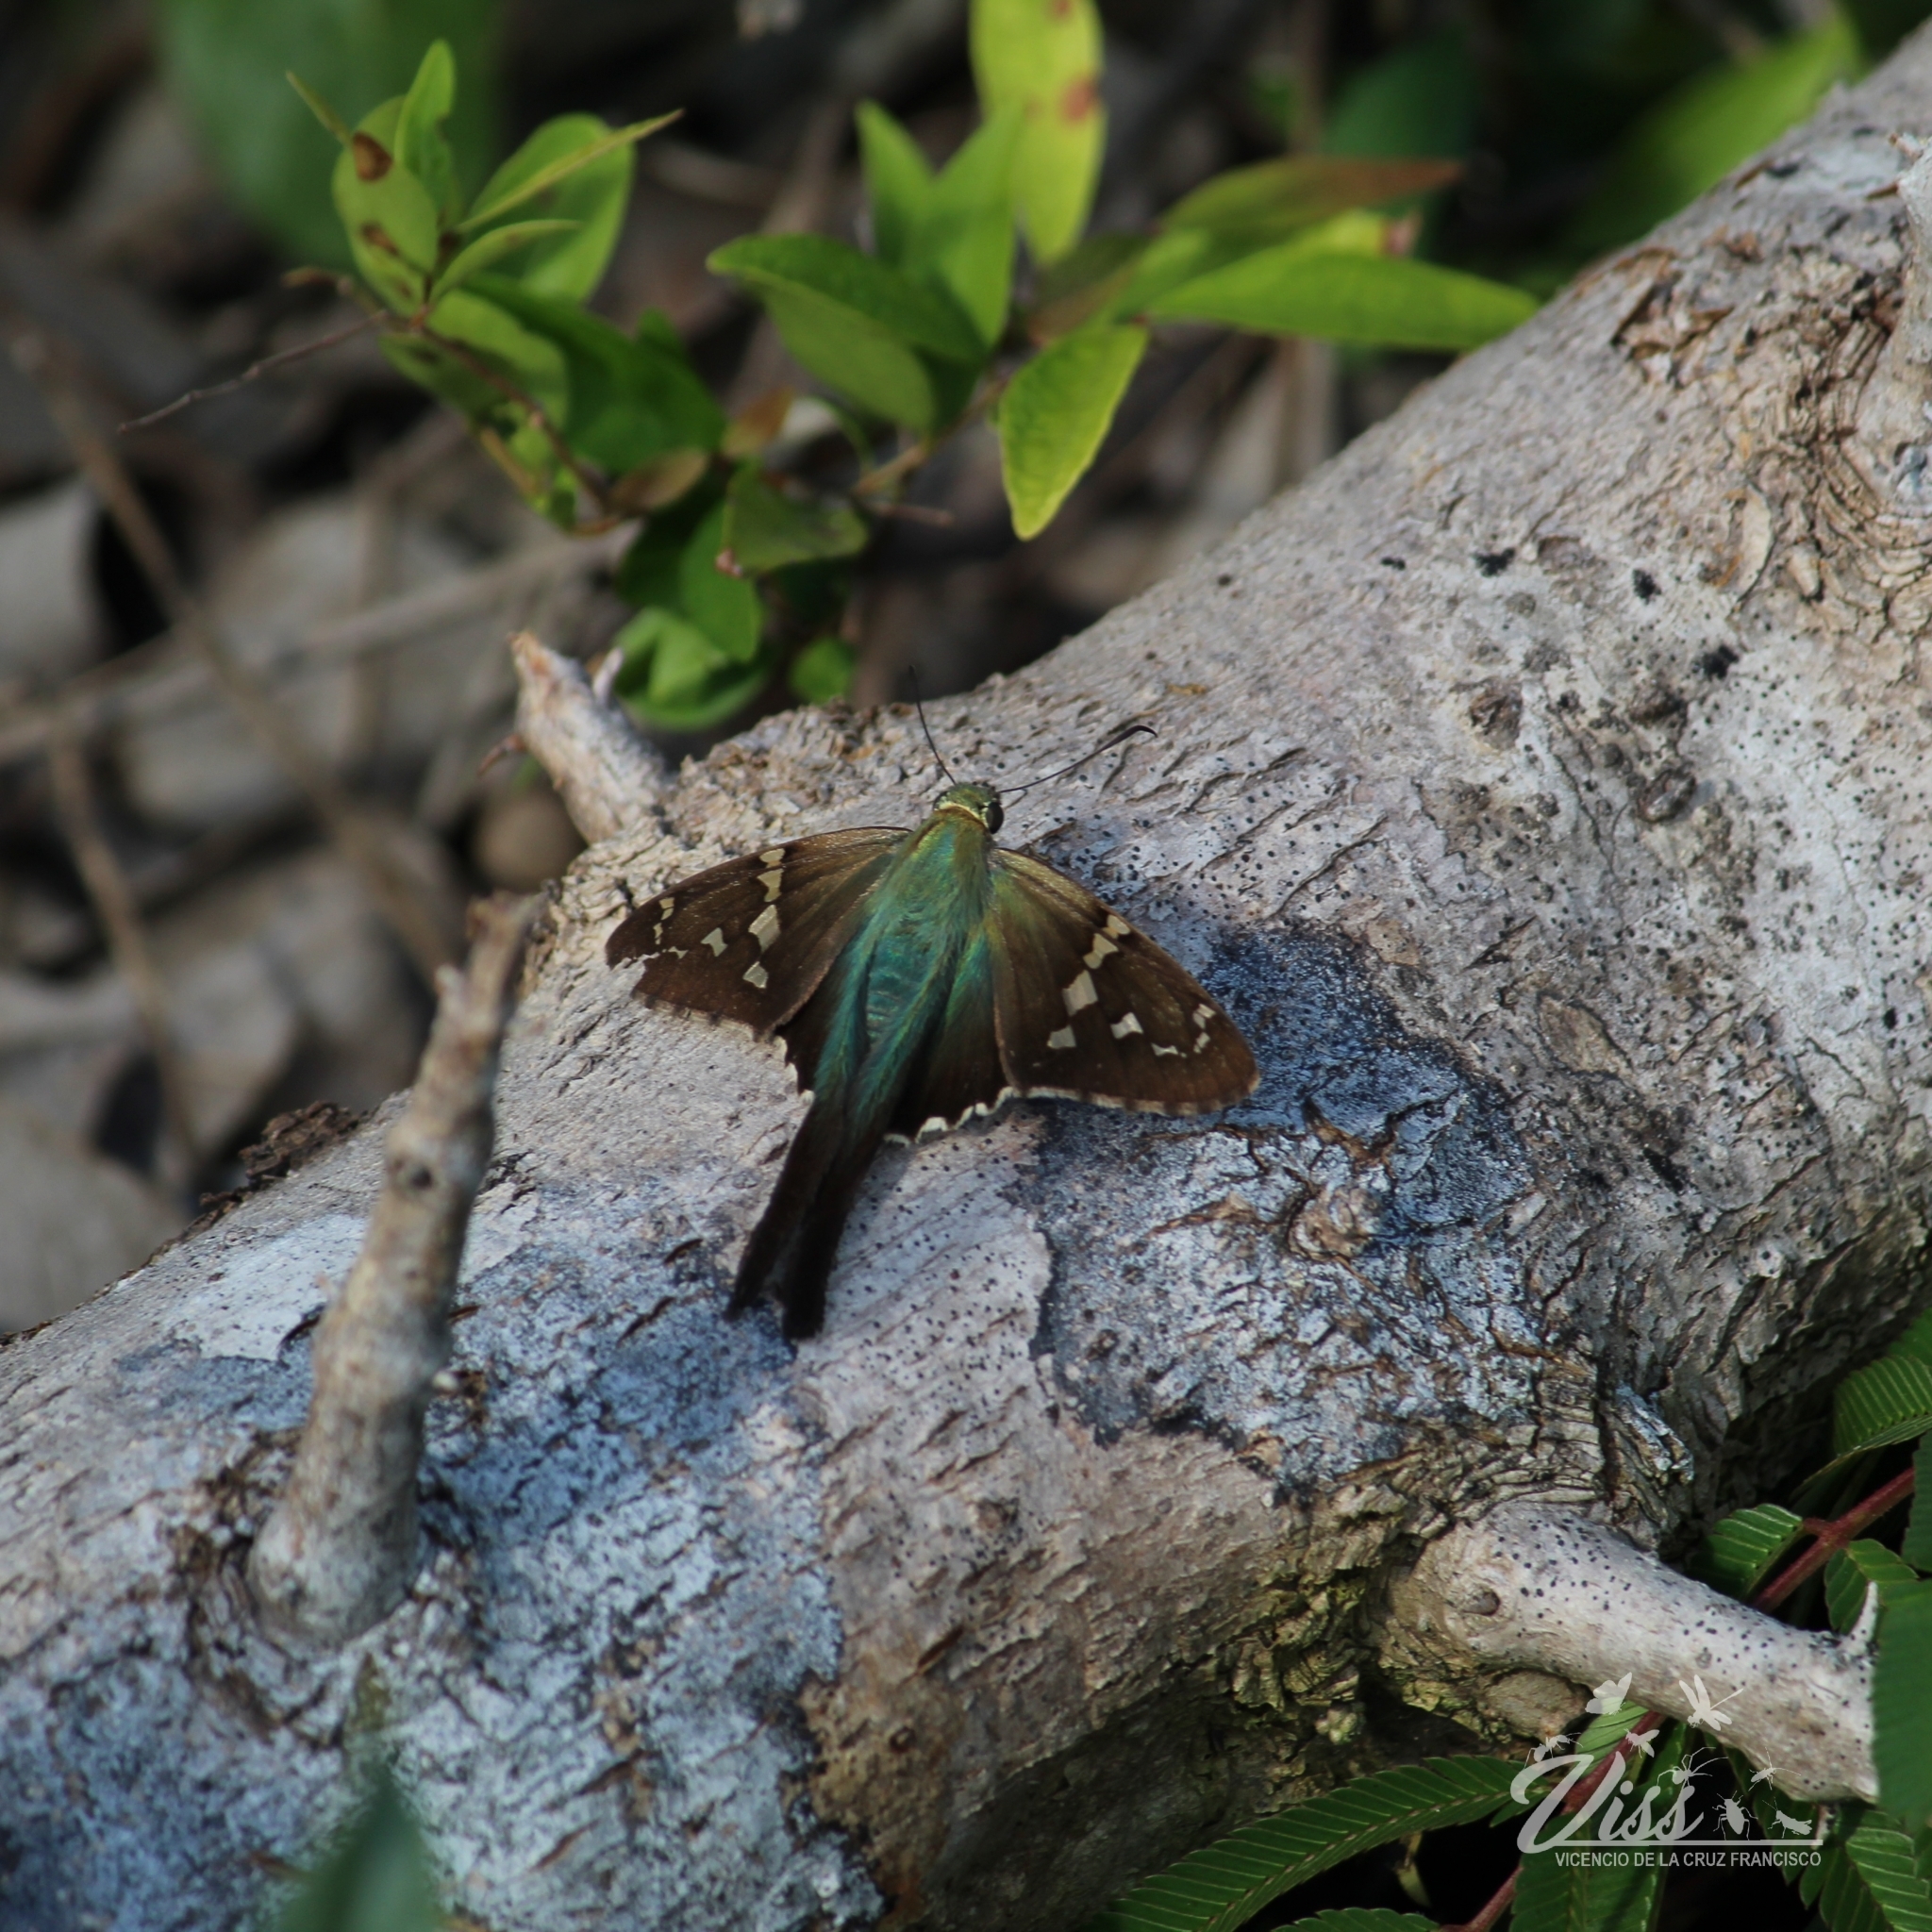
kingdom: Animalia
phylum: Arthropoda
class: Insecta
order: Lepidoptera
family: Hesperiidae
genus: Urbanus
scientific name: Urbanus proteus
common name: Long-tailed skipper
